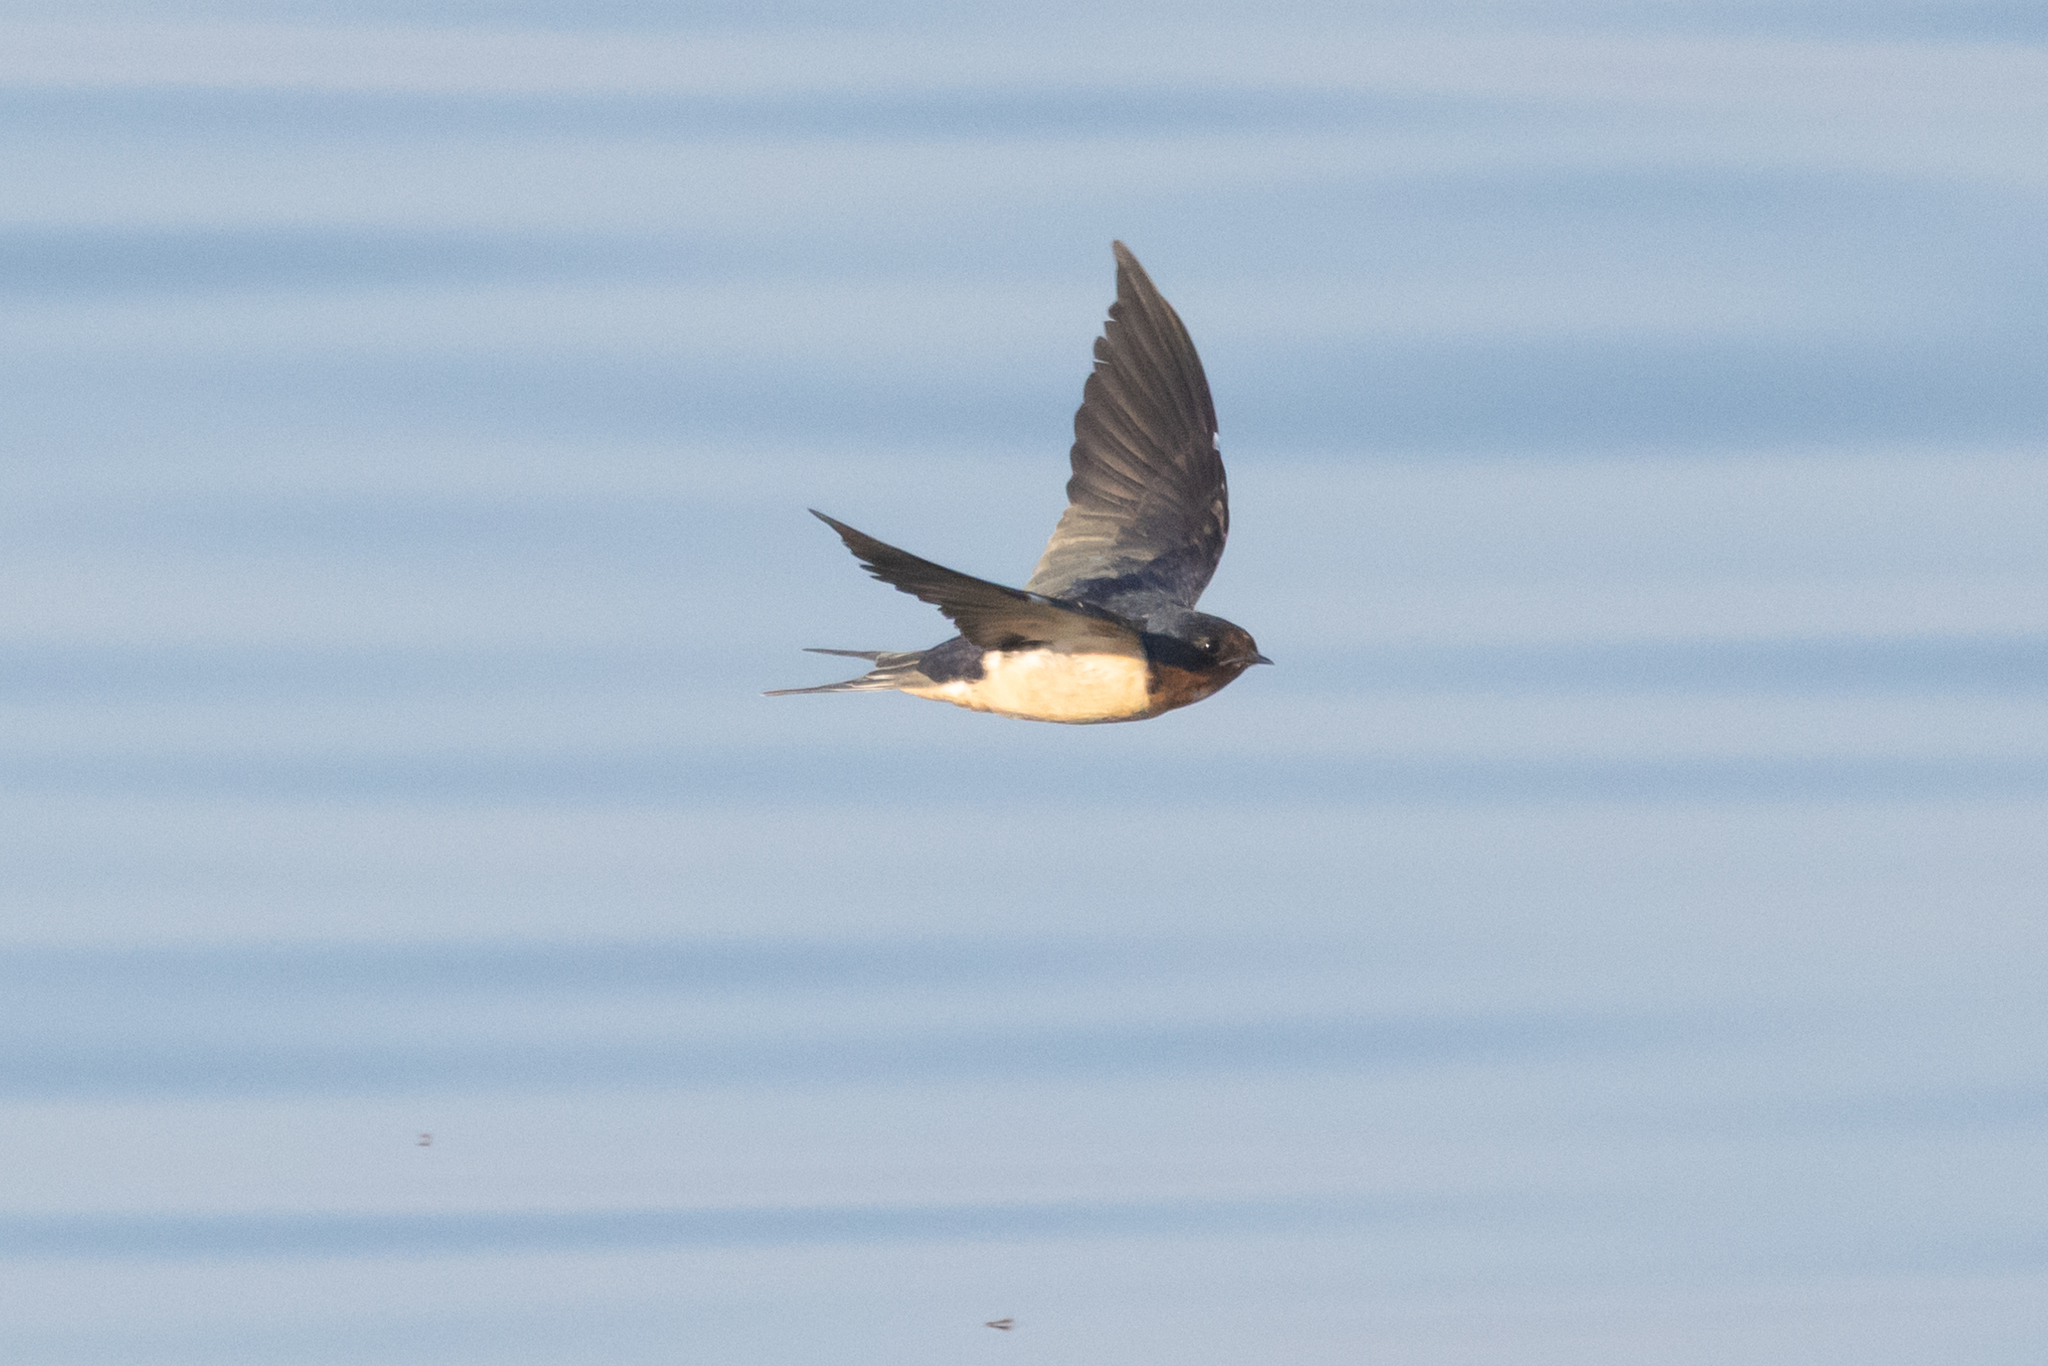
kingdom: Animalia
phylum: Chordata
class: Aves
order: Passeriformes
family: Hirundinidae
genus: Hirundo
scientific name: Hirundo rustica
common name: Barn swallow
